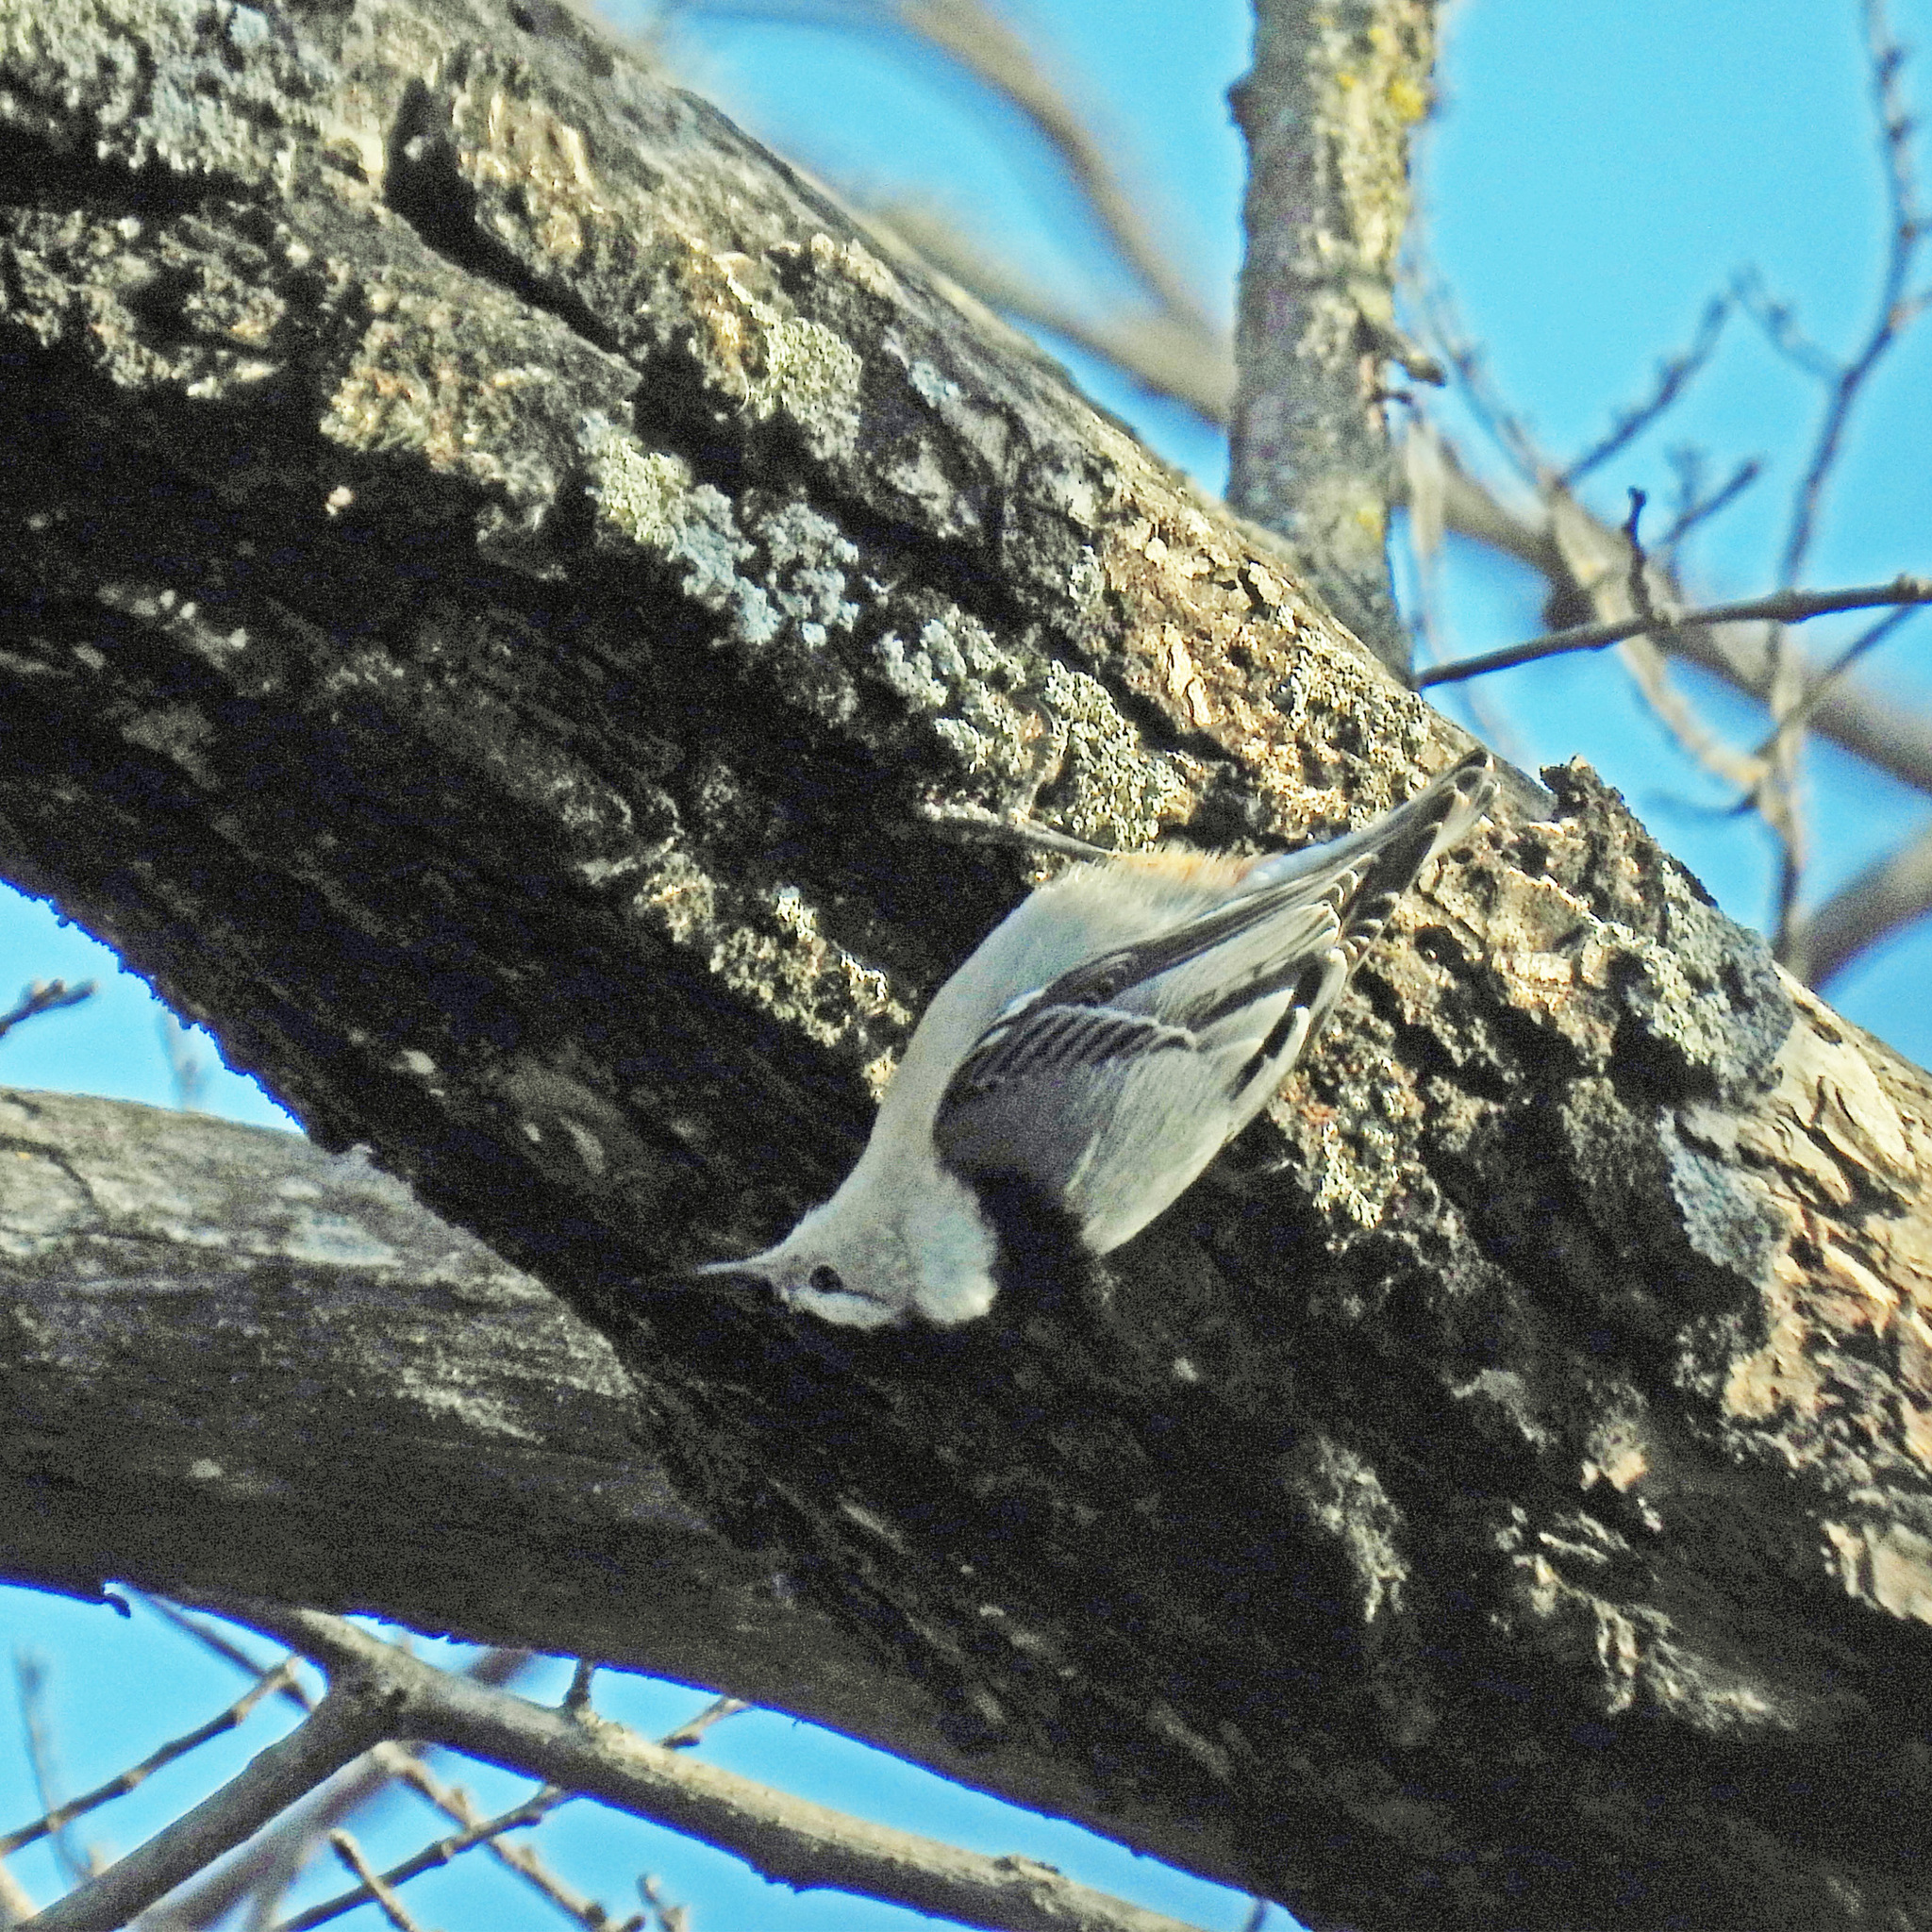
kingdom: Animalia
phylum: Chordata
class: Aves
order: Passeriformes
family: Sittidae
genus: Sitta
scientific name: Sitta carolinensis
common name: White-breasted nuthatch
